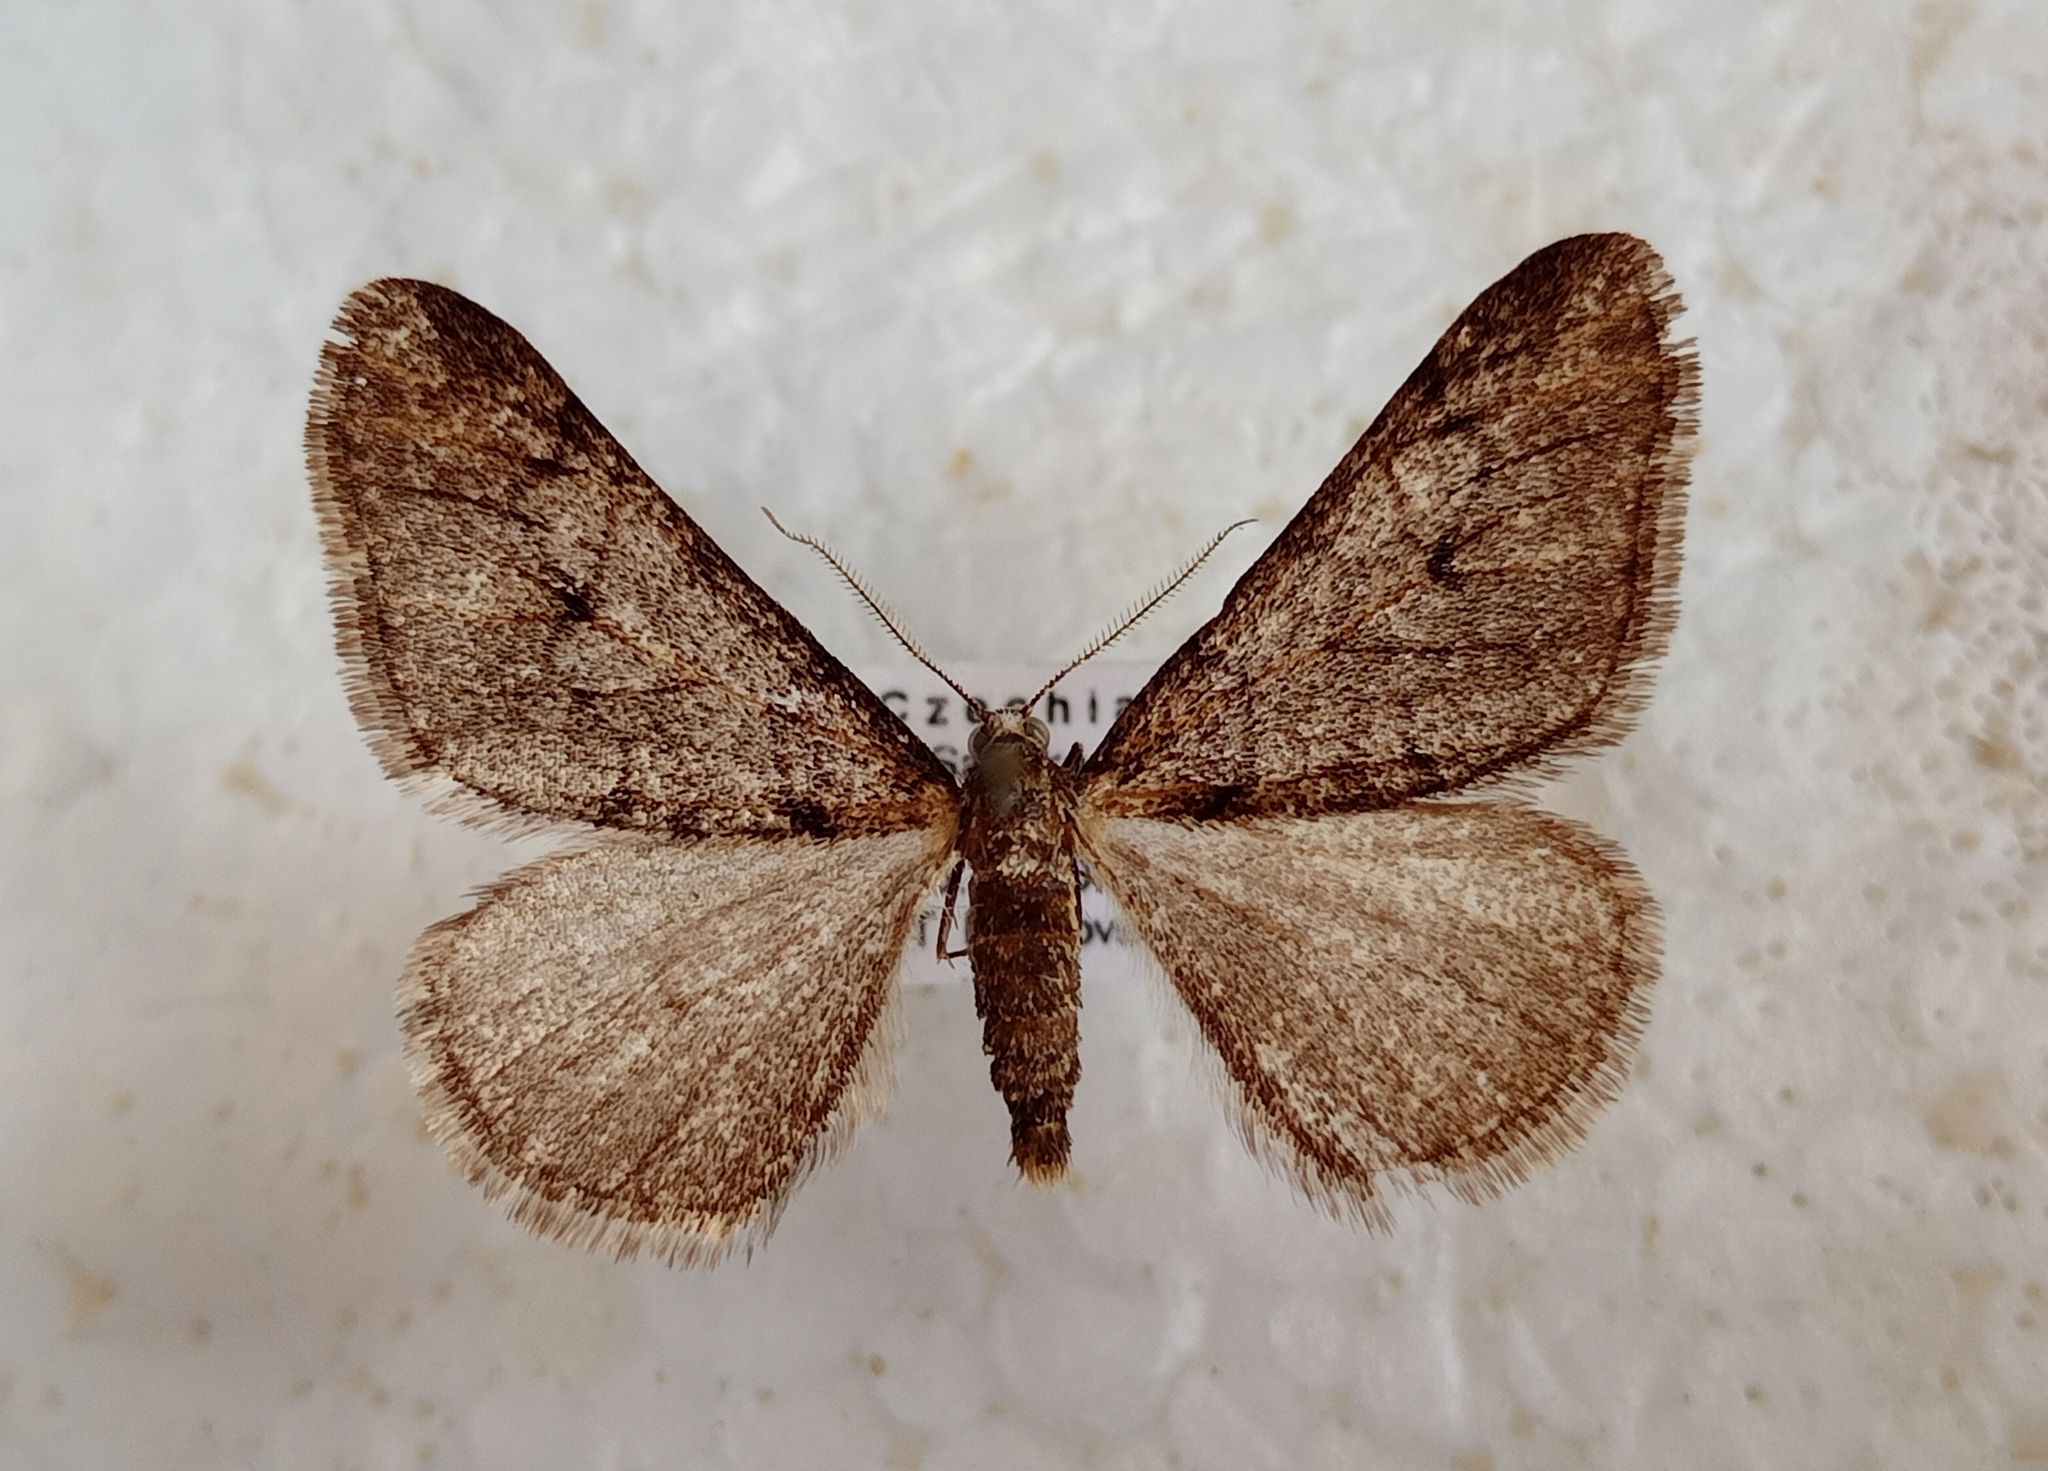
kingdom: Animalia
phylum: Arthropoda
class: Insecta
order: Lepidoptera
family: Geometridae
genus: Agriopis
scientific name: Agriopis leucophaearia
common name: Spring usher
